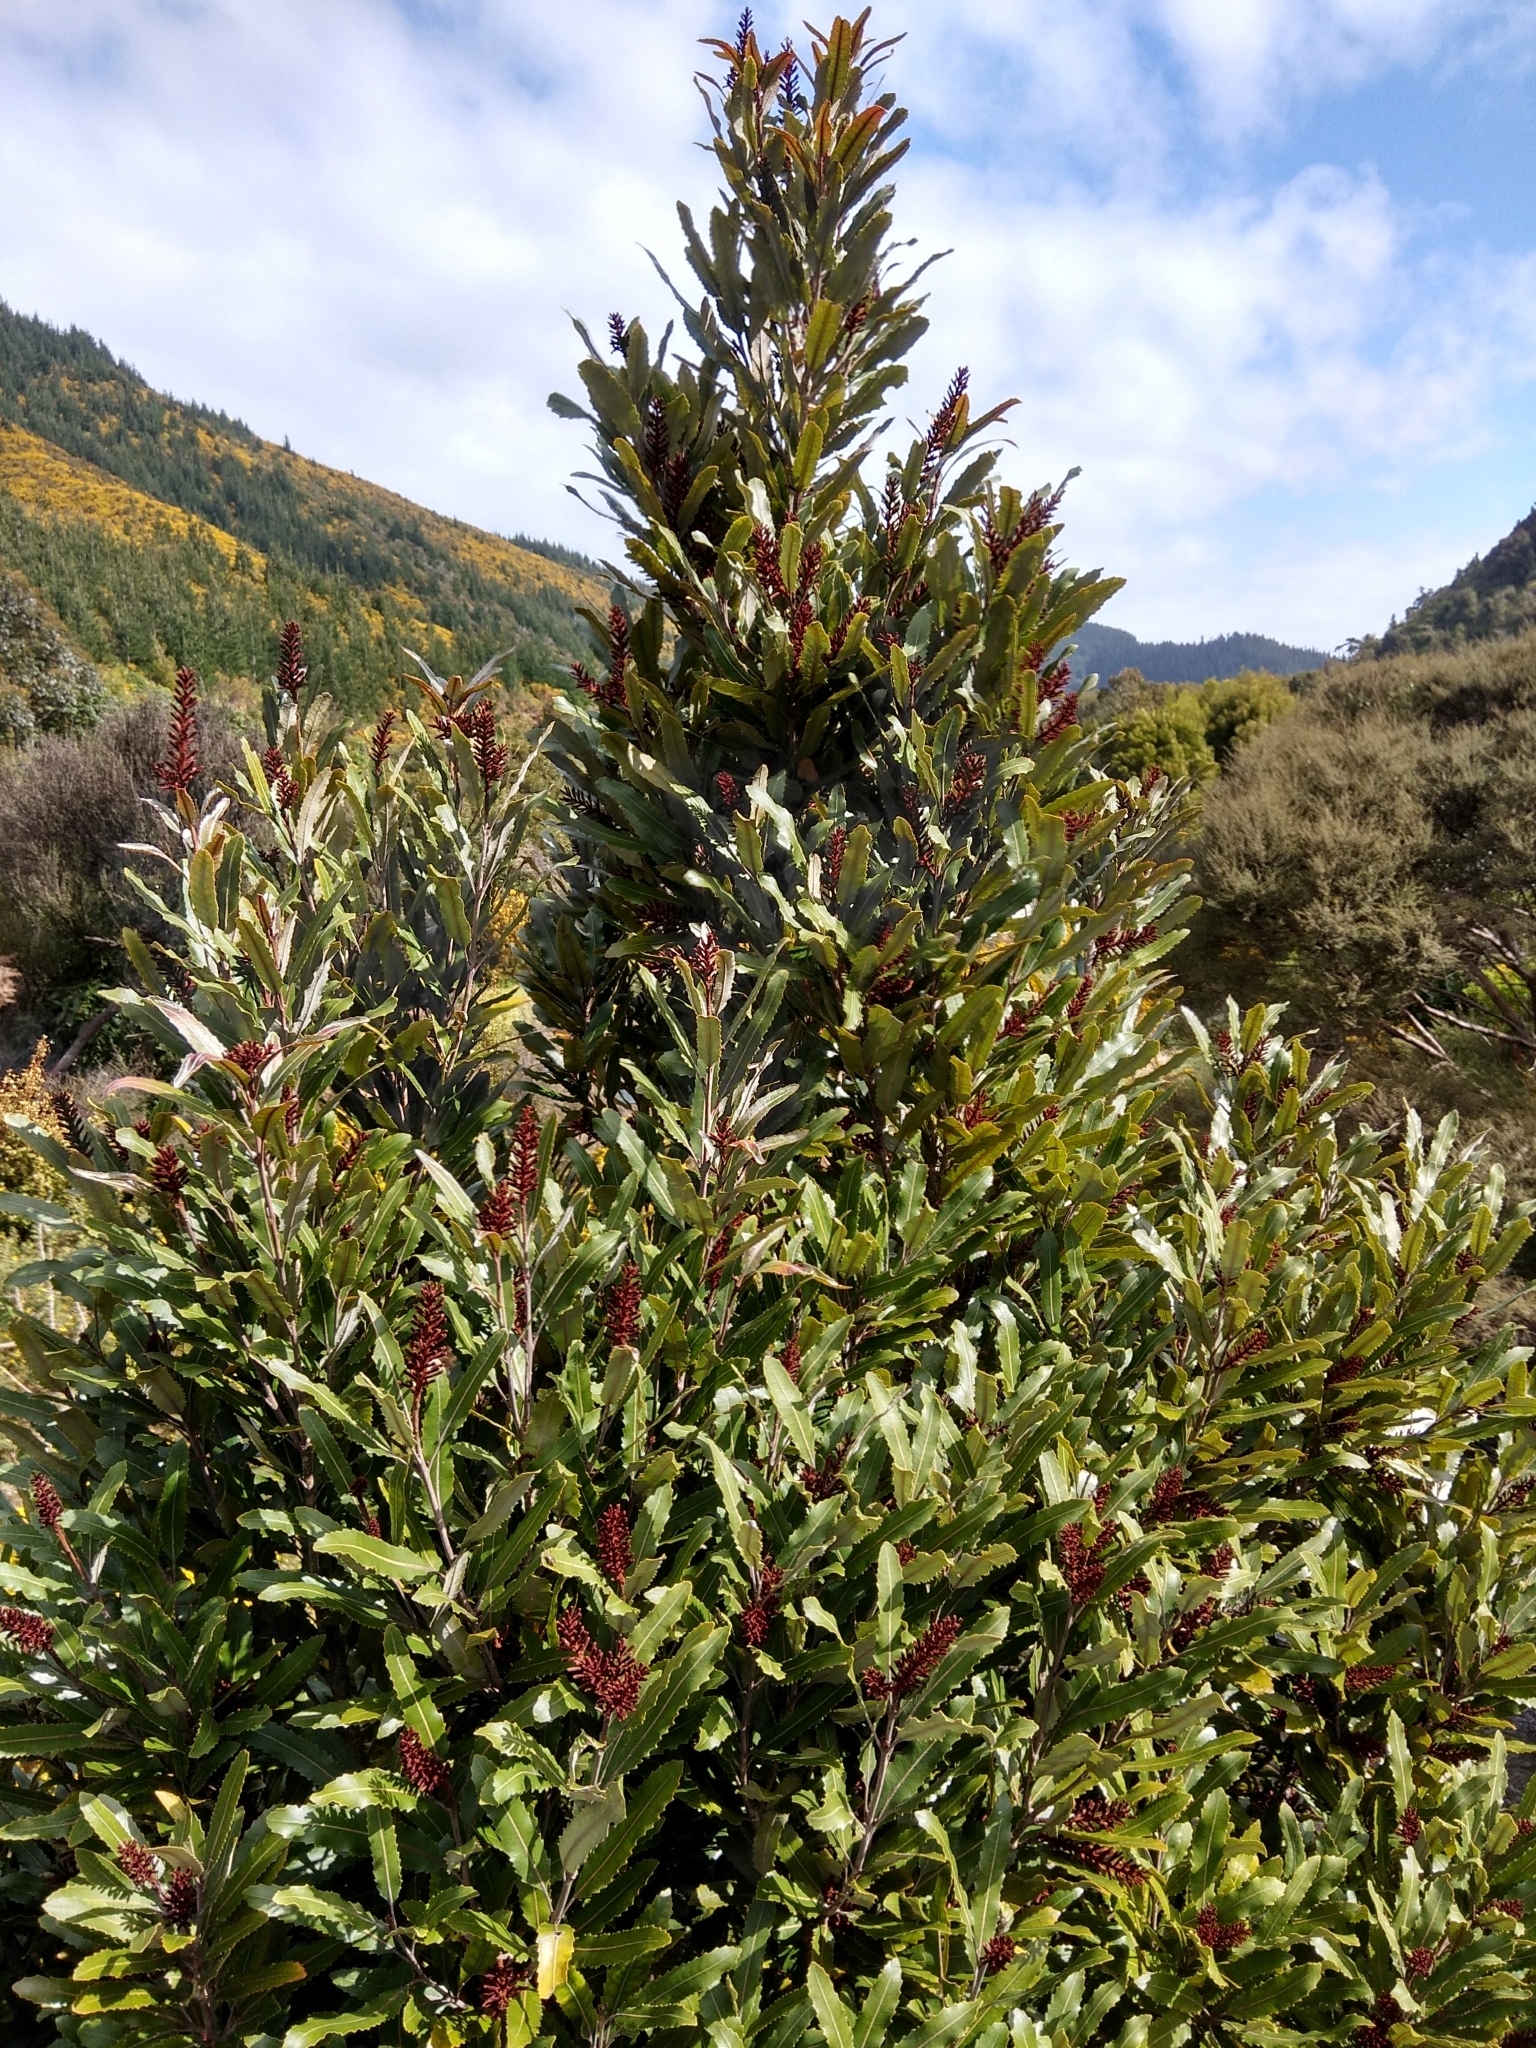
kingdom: Plantae
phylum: Tracheophyta
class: Magnoliopsida
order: Proteales
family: Proteaceae
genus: Knightia
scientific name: Knightia excelsa
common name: New zealand-honeysuckle
